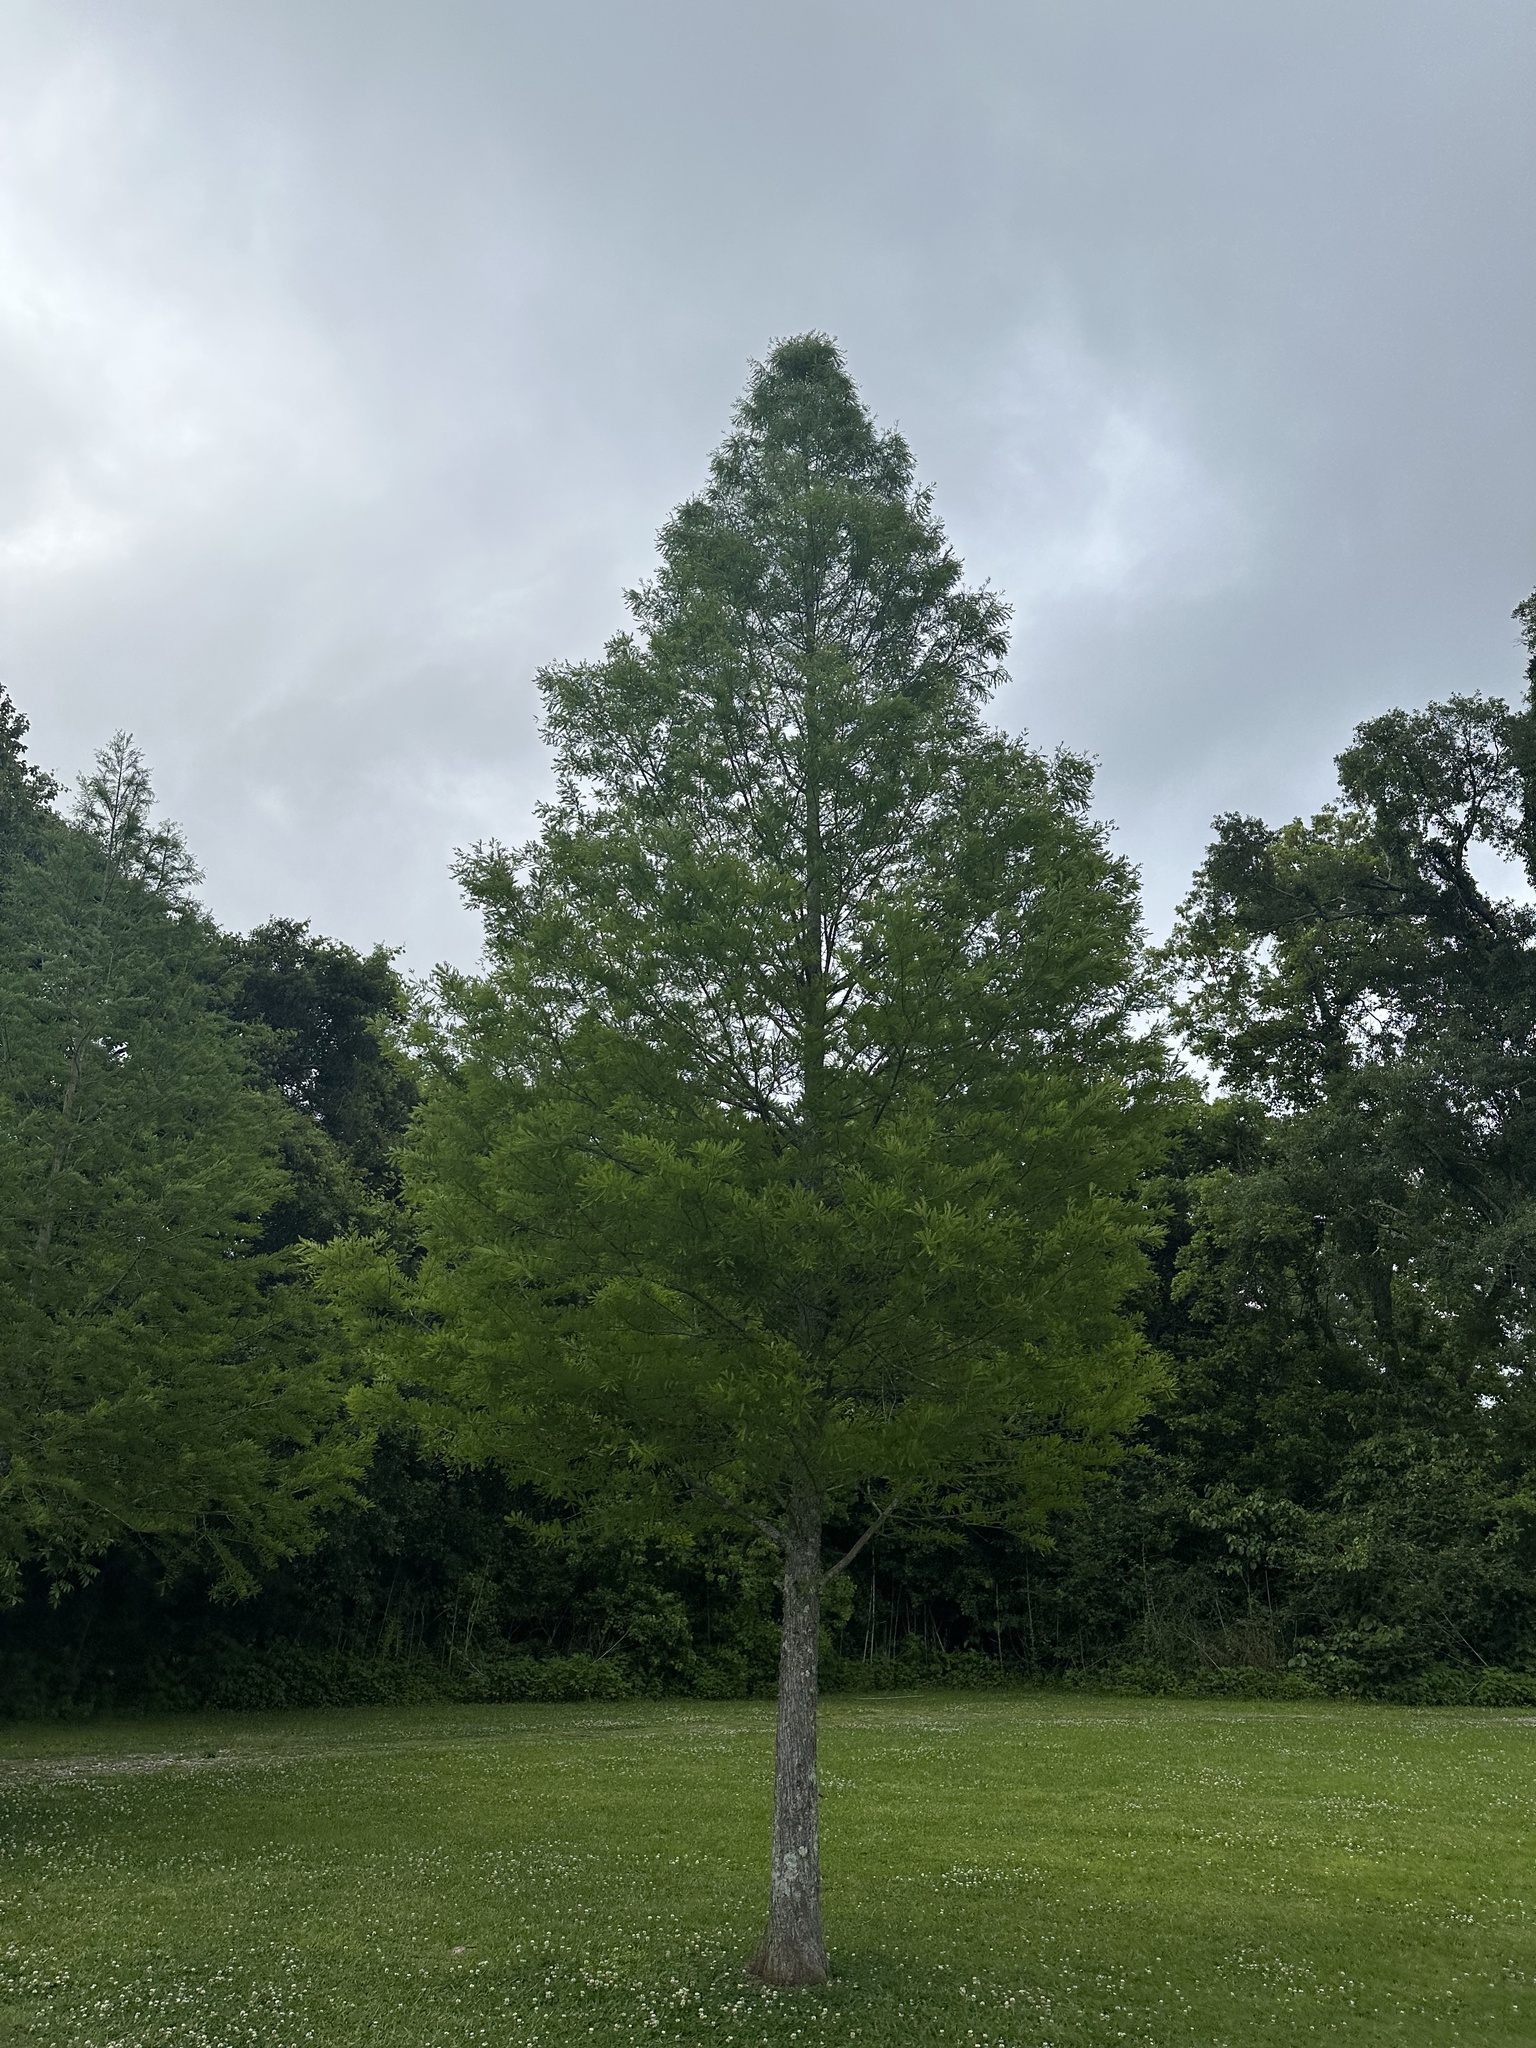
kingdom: Plantae
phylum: Tracheophyta
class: Pinopsida
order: Pinales
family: Cupressaceae
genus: Taxodium
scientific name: Taxodium distichum
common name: Bald cypress
